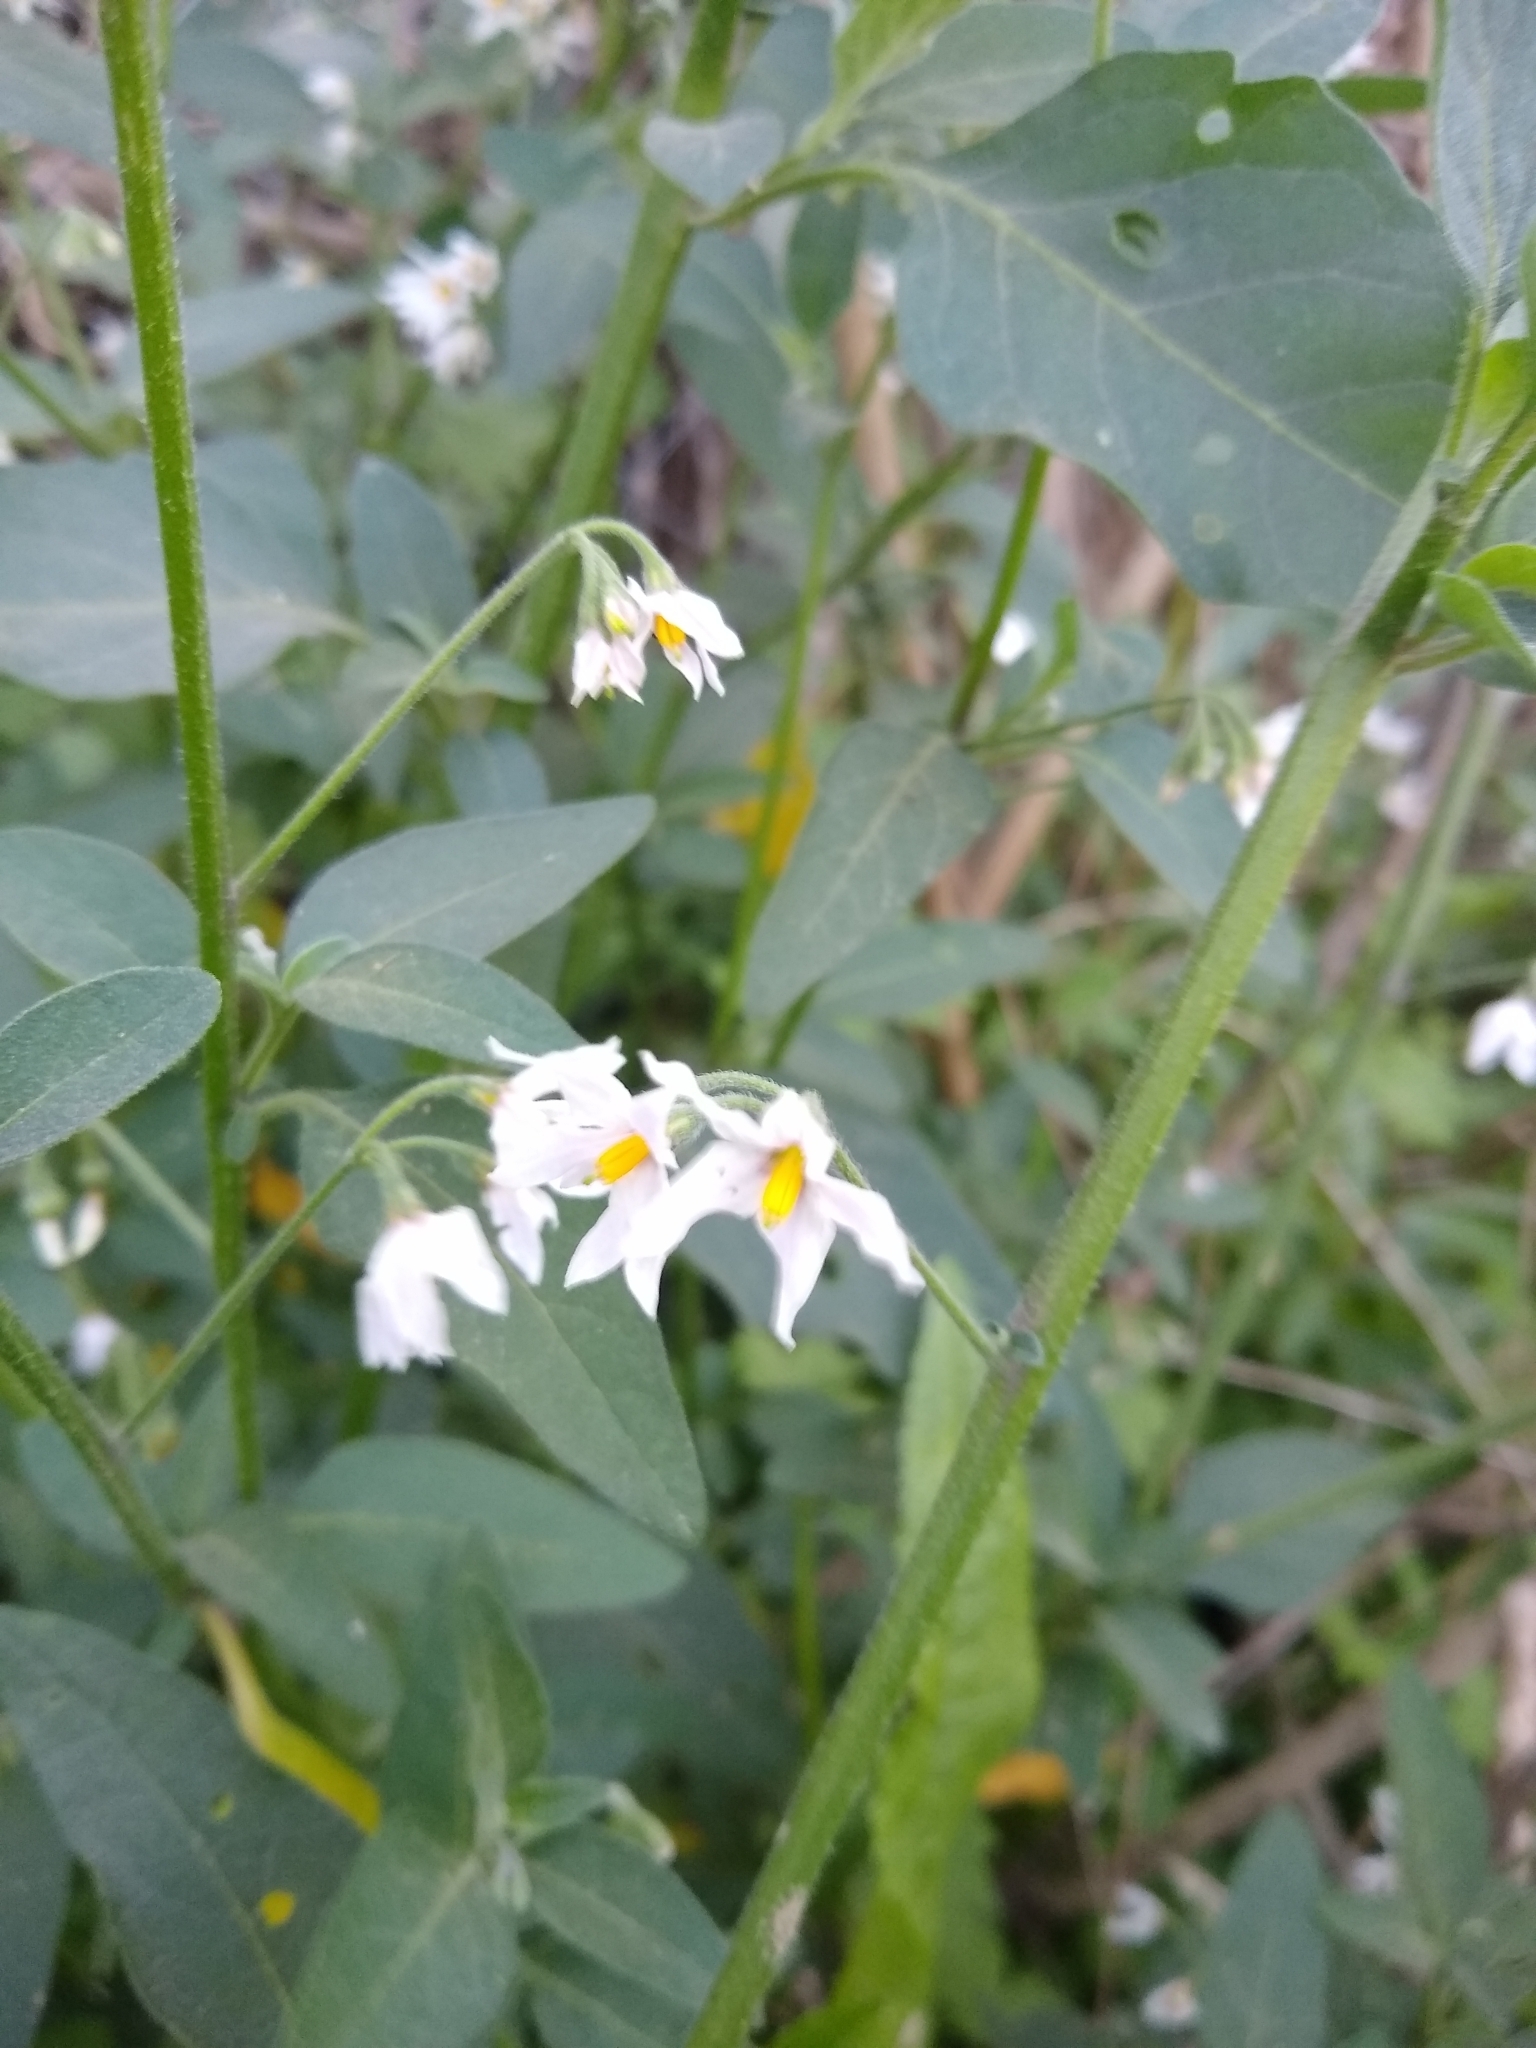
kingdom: Plantae
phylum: Tracheophyta
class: Magnoliopsida
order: Solanales
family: Solanaceae
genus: Solanum
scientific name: Solanum chenopodioides
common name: Tall nightshade
